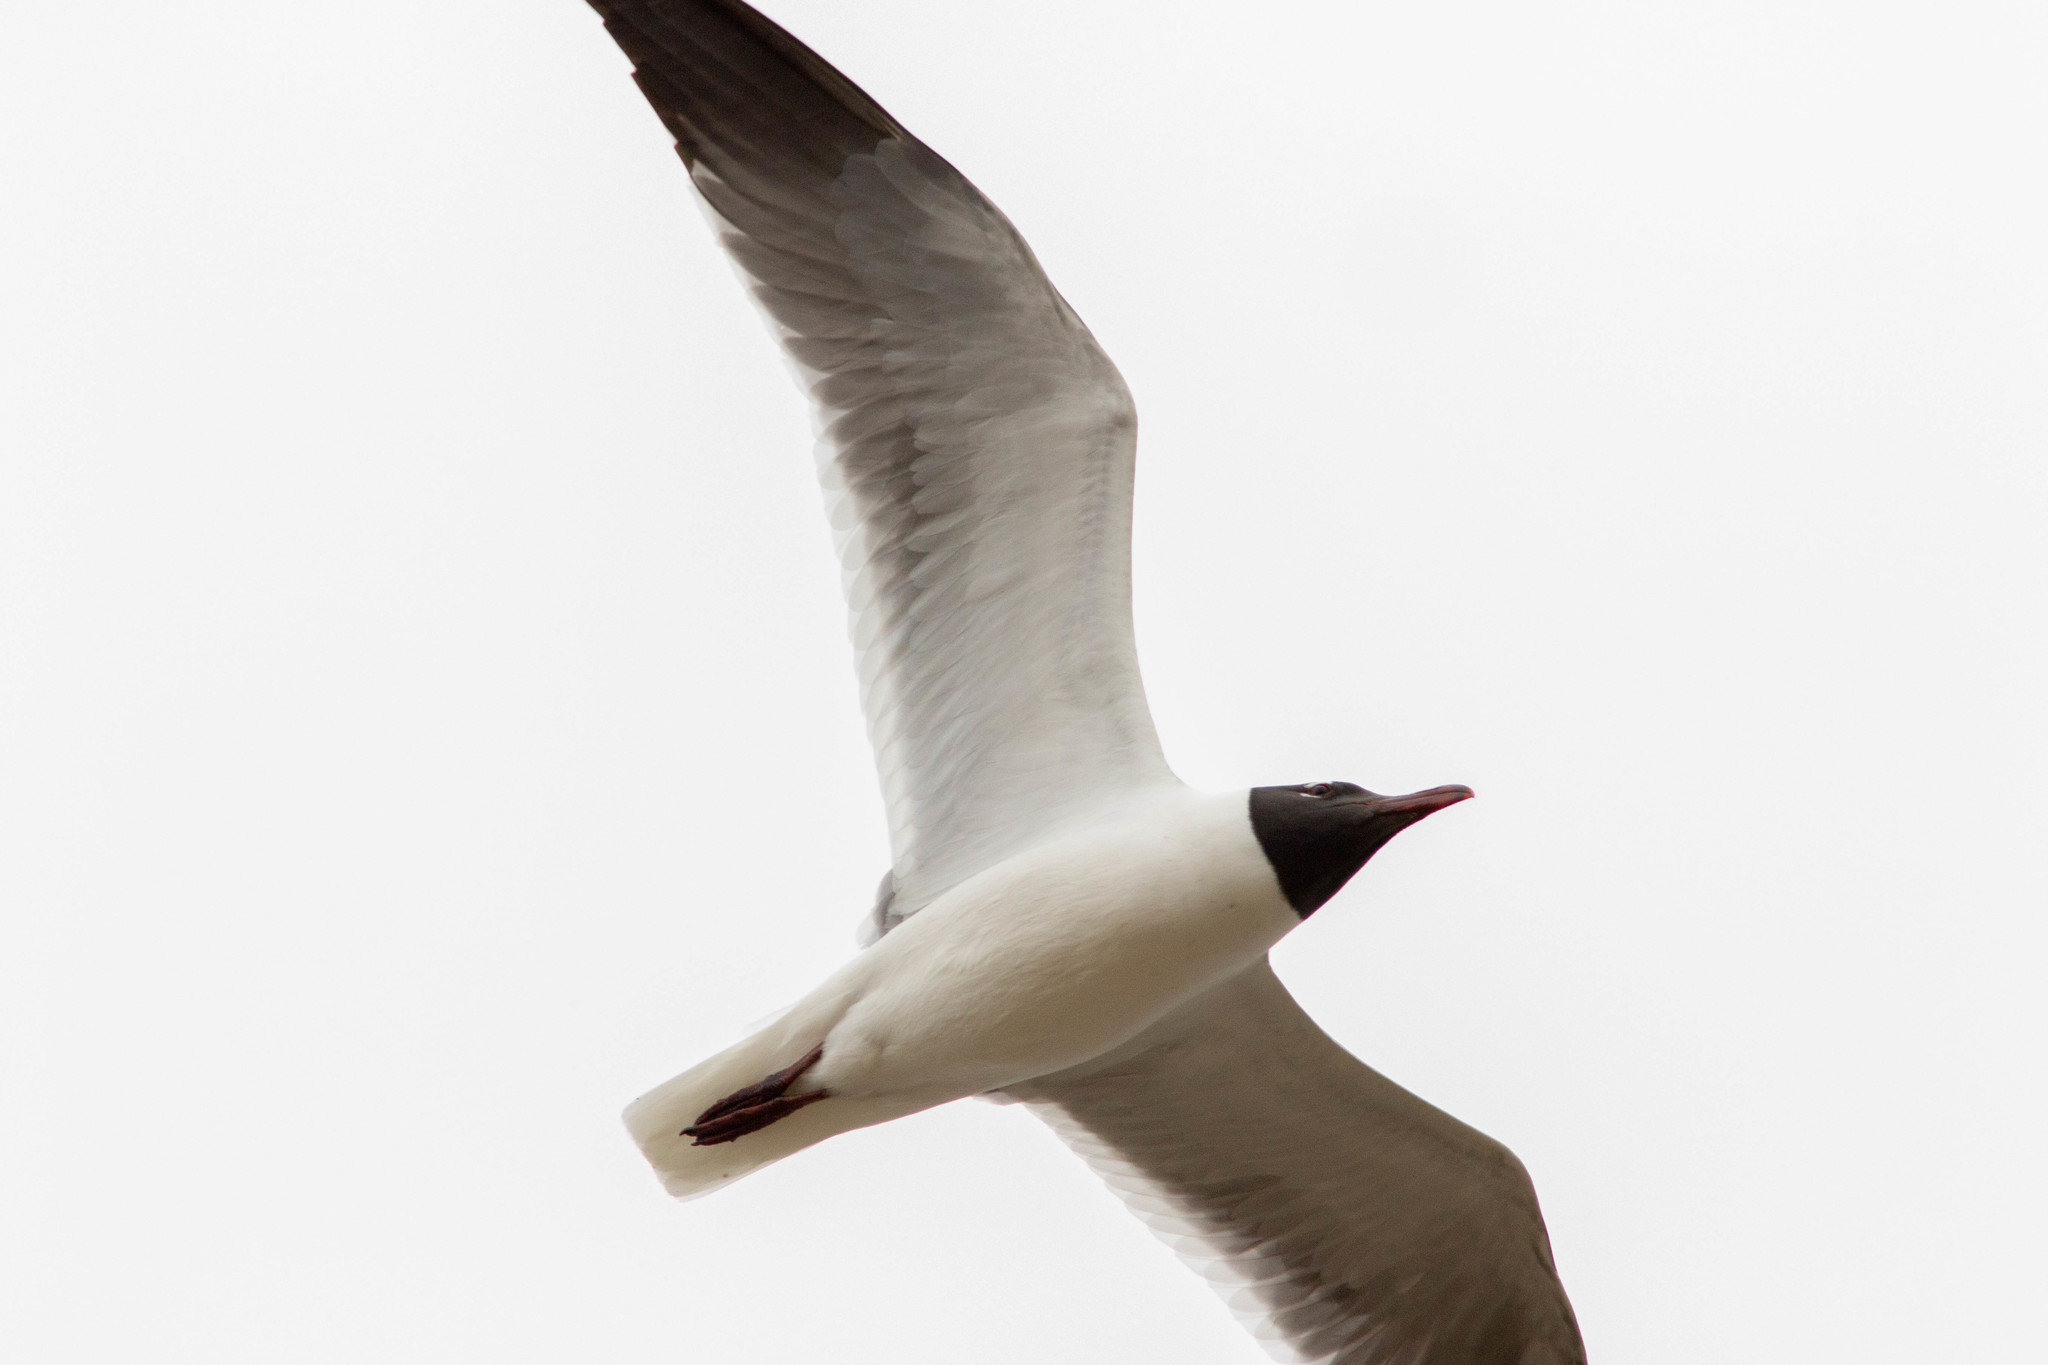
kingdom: Animalia
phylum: Chordata
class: Aves
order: Charadriiformes
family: Laridae
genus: Leucophaeus
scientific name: Leucophaeus atricilla
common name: Laughing gull
